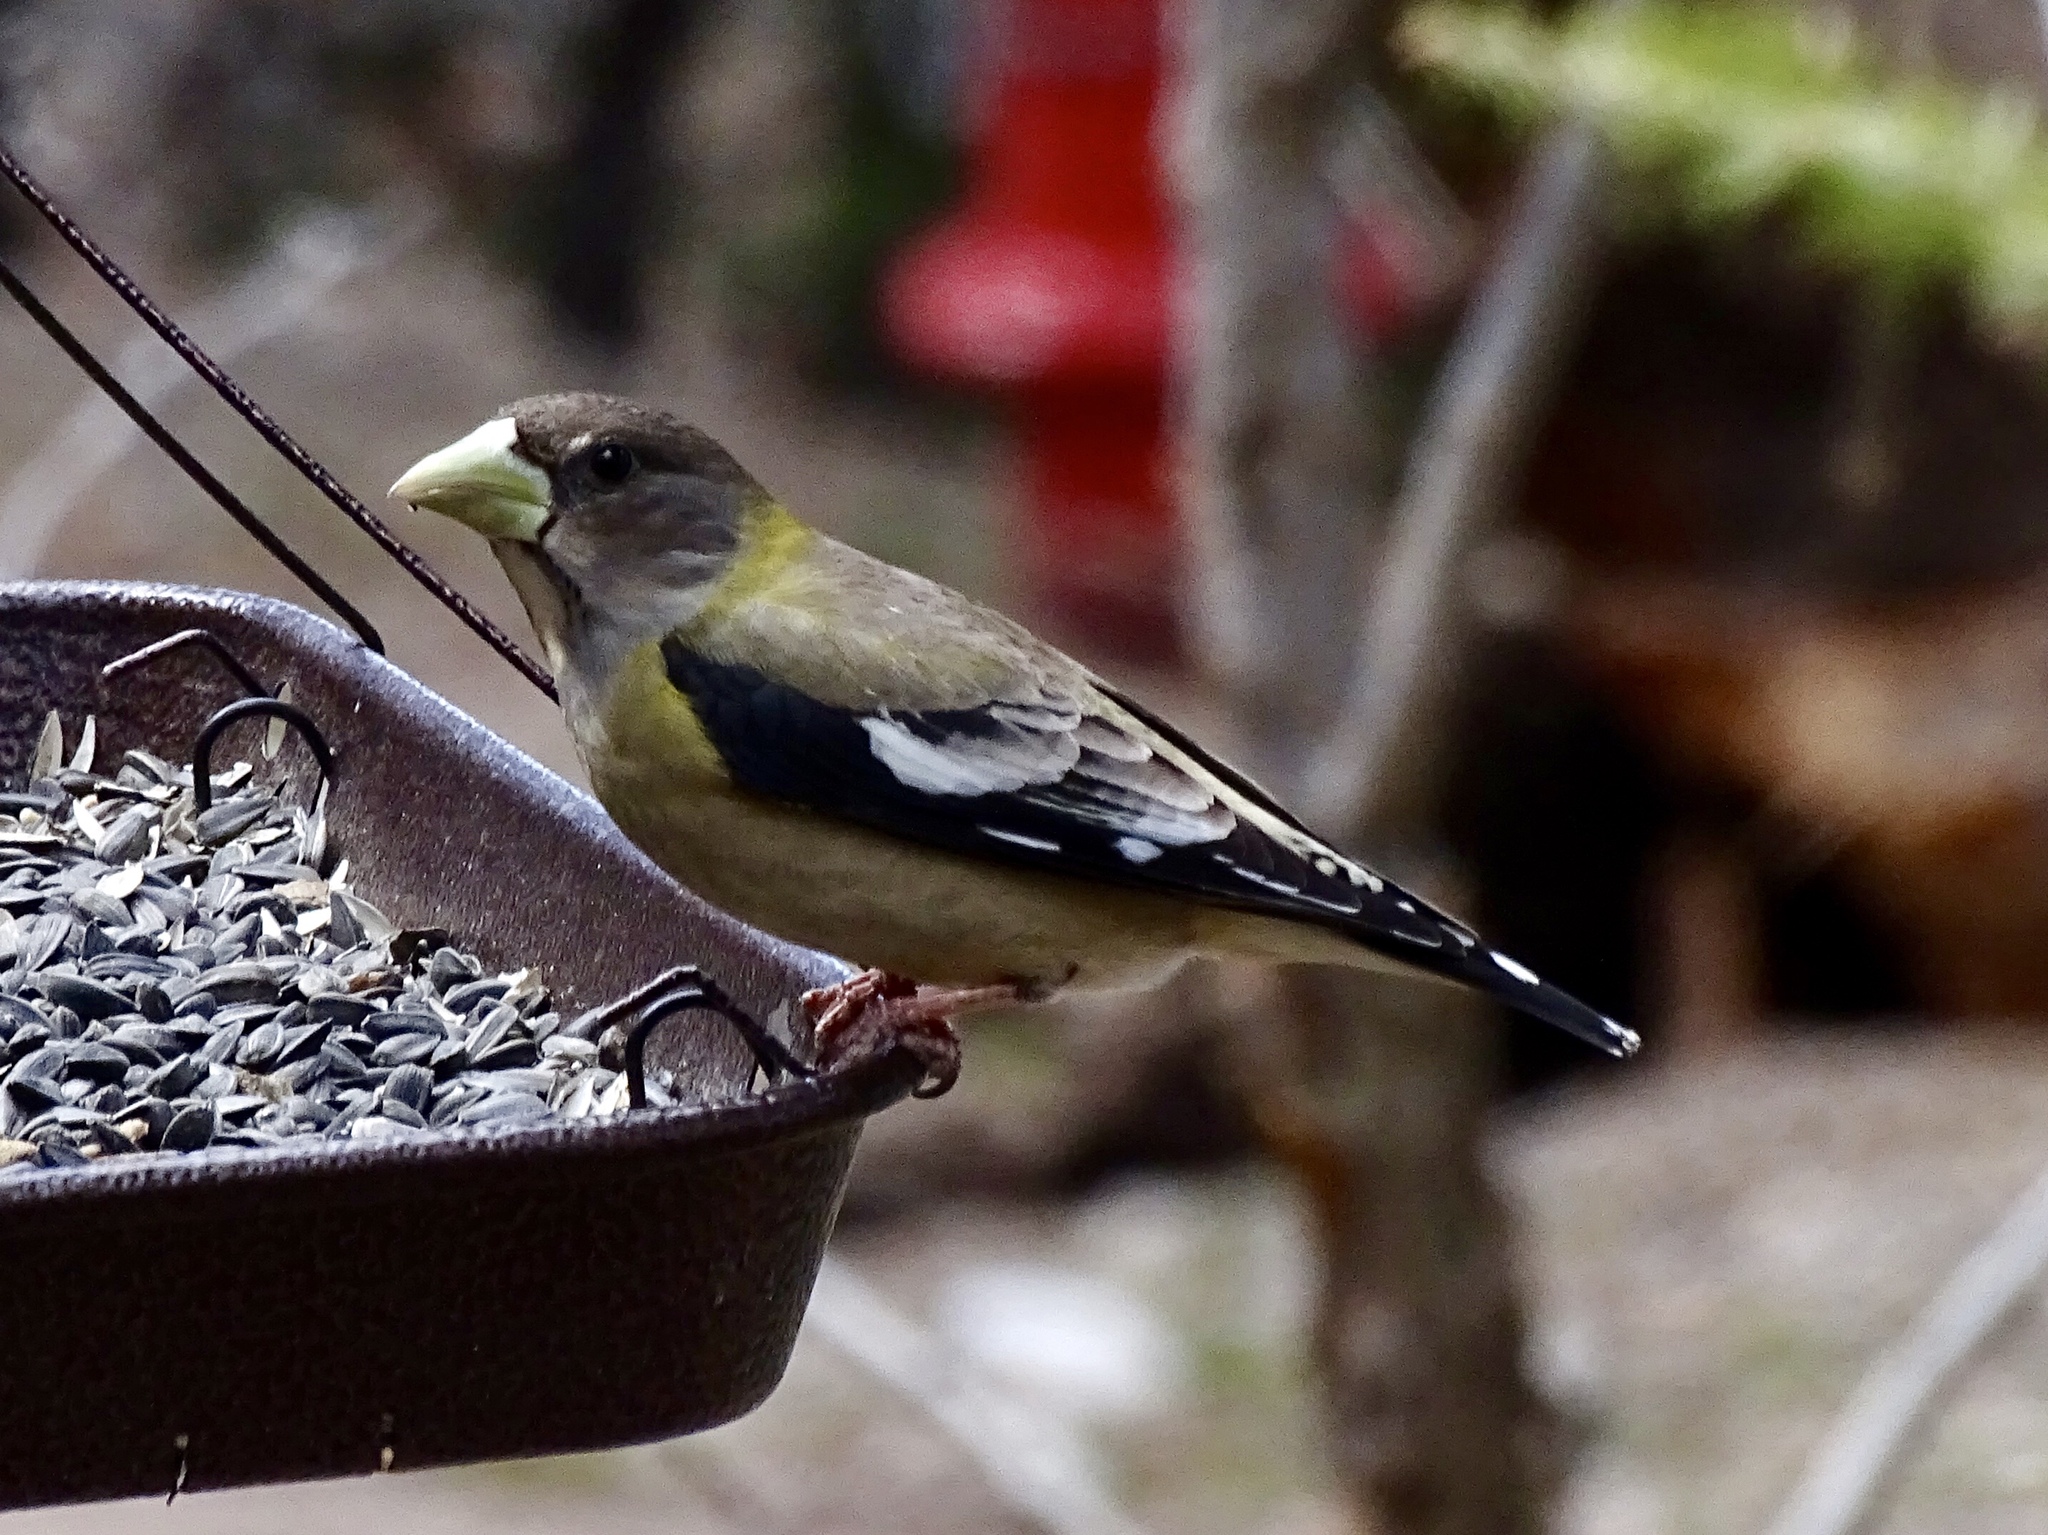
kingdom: Animalia
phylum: Chordata
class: Aves
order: Passeriformes
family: Fringillidae
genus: Hesperiphona
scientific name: Hesperiphona vespertina
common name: Evening grosbeak
